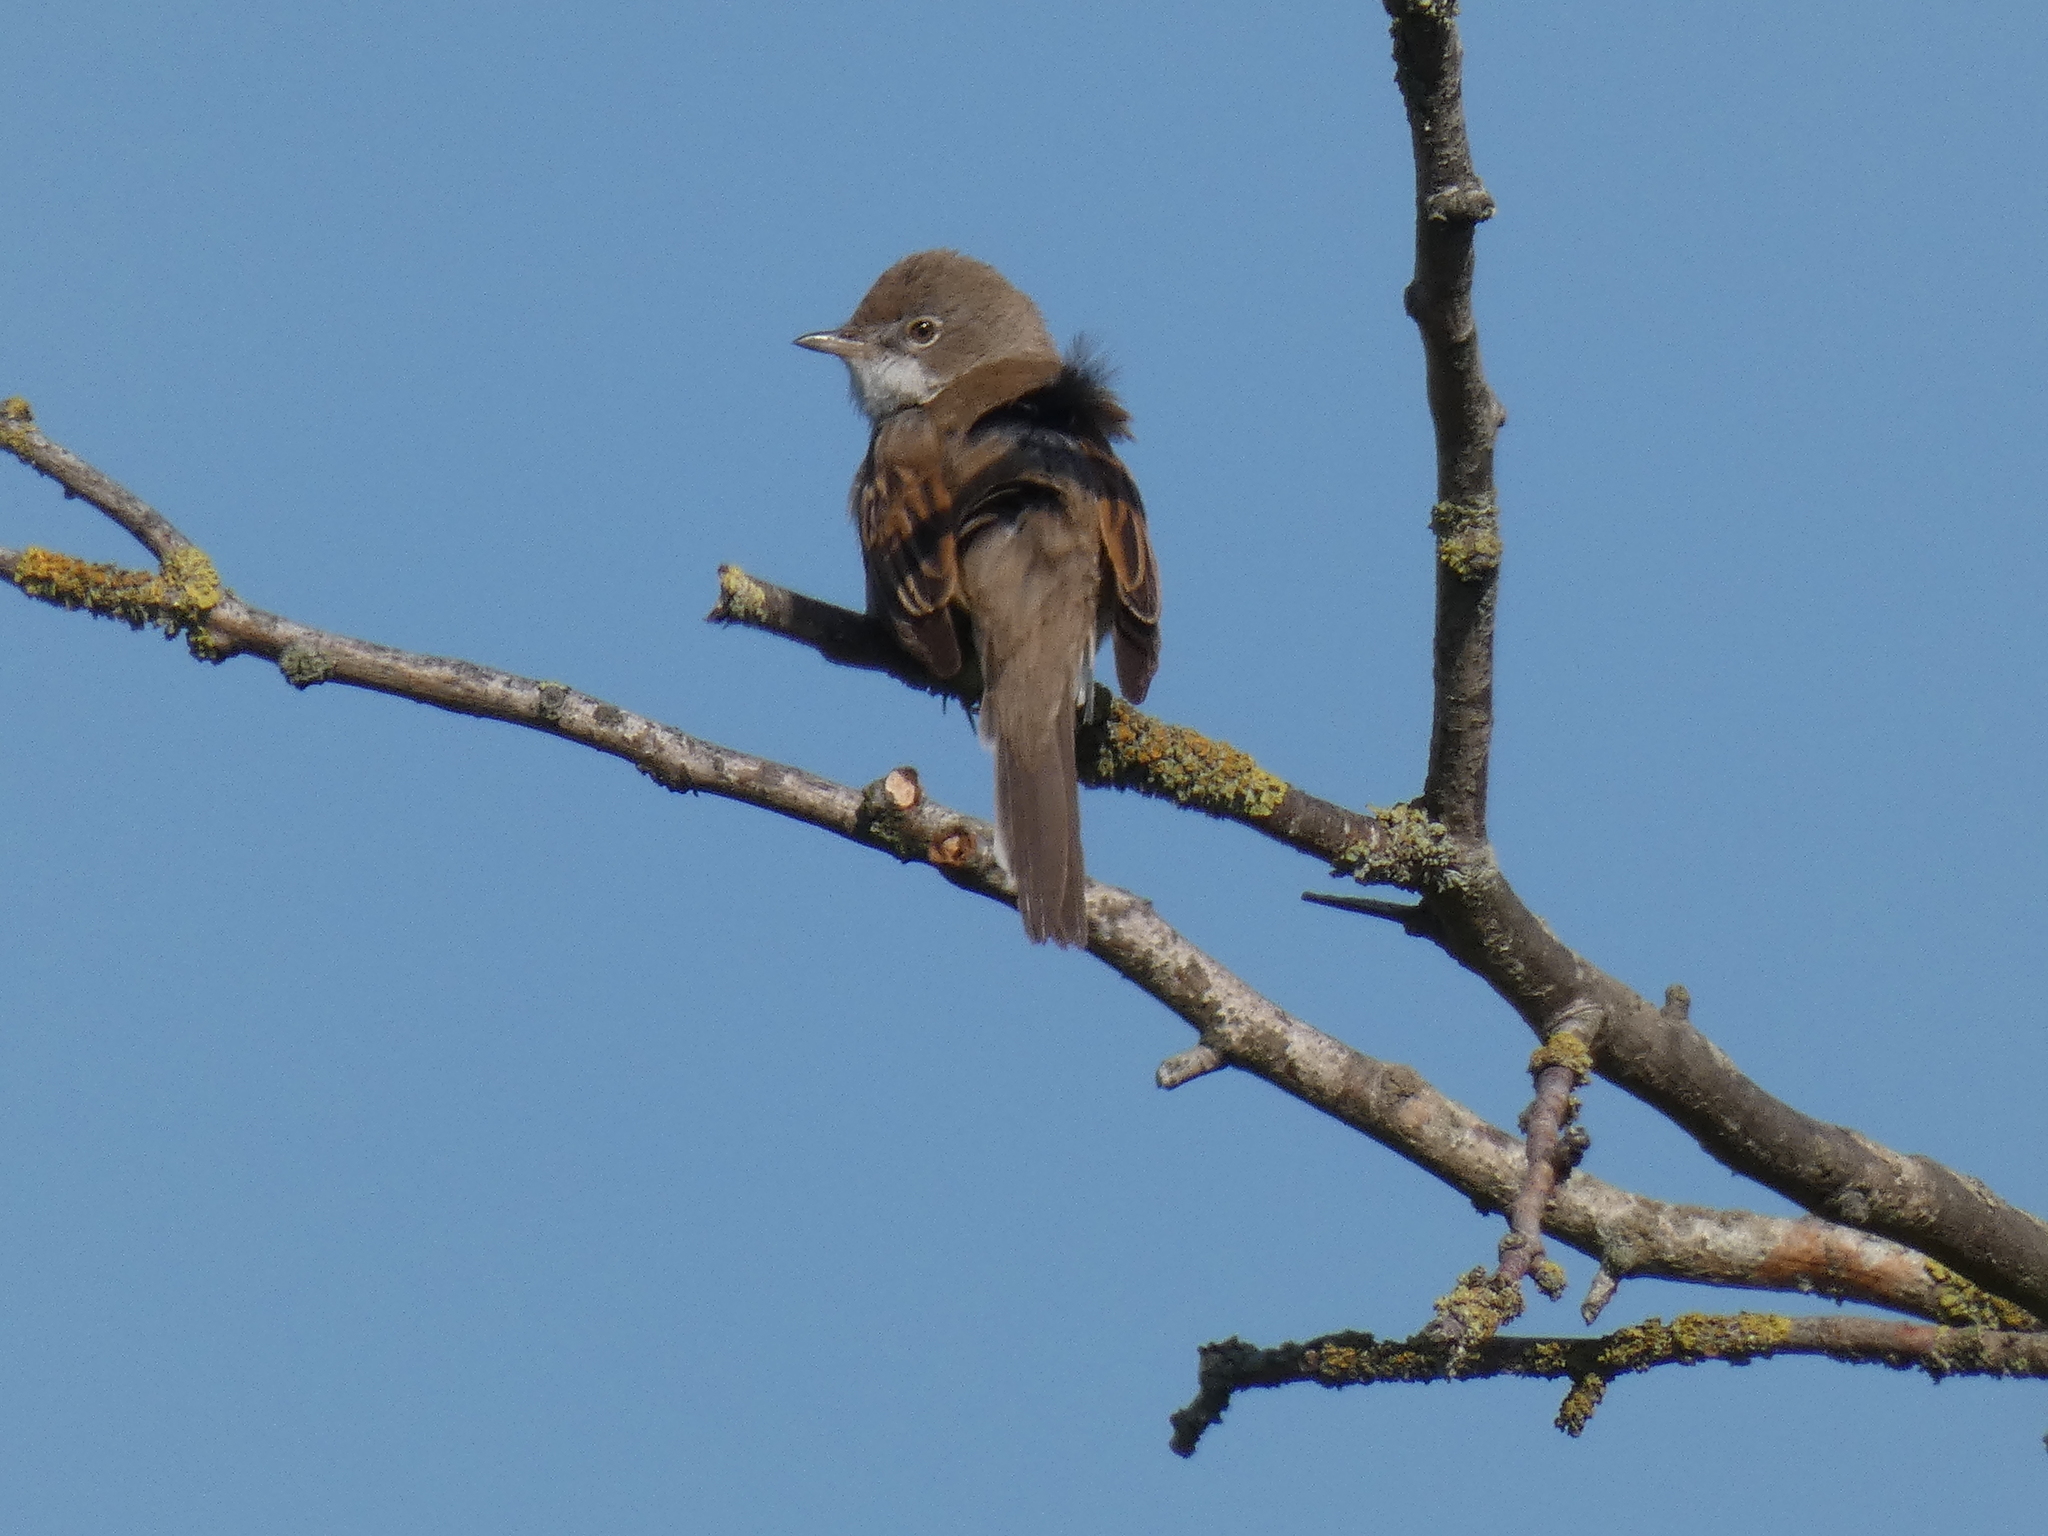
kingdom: Animalia
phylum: Chordata
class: Aves
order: Passeriformes
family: Sylviidae
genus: Sylvia
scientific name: Sylvia communis
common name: Common whitethroat
